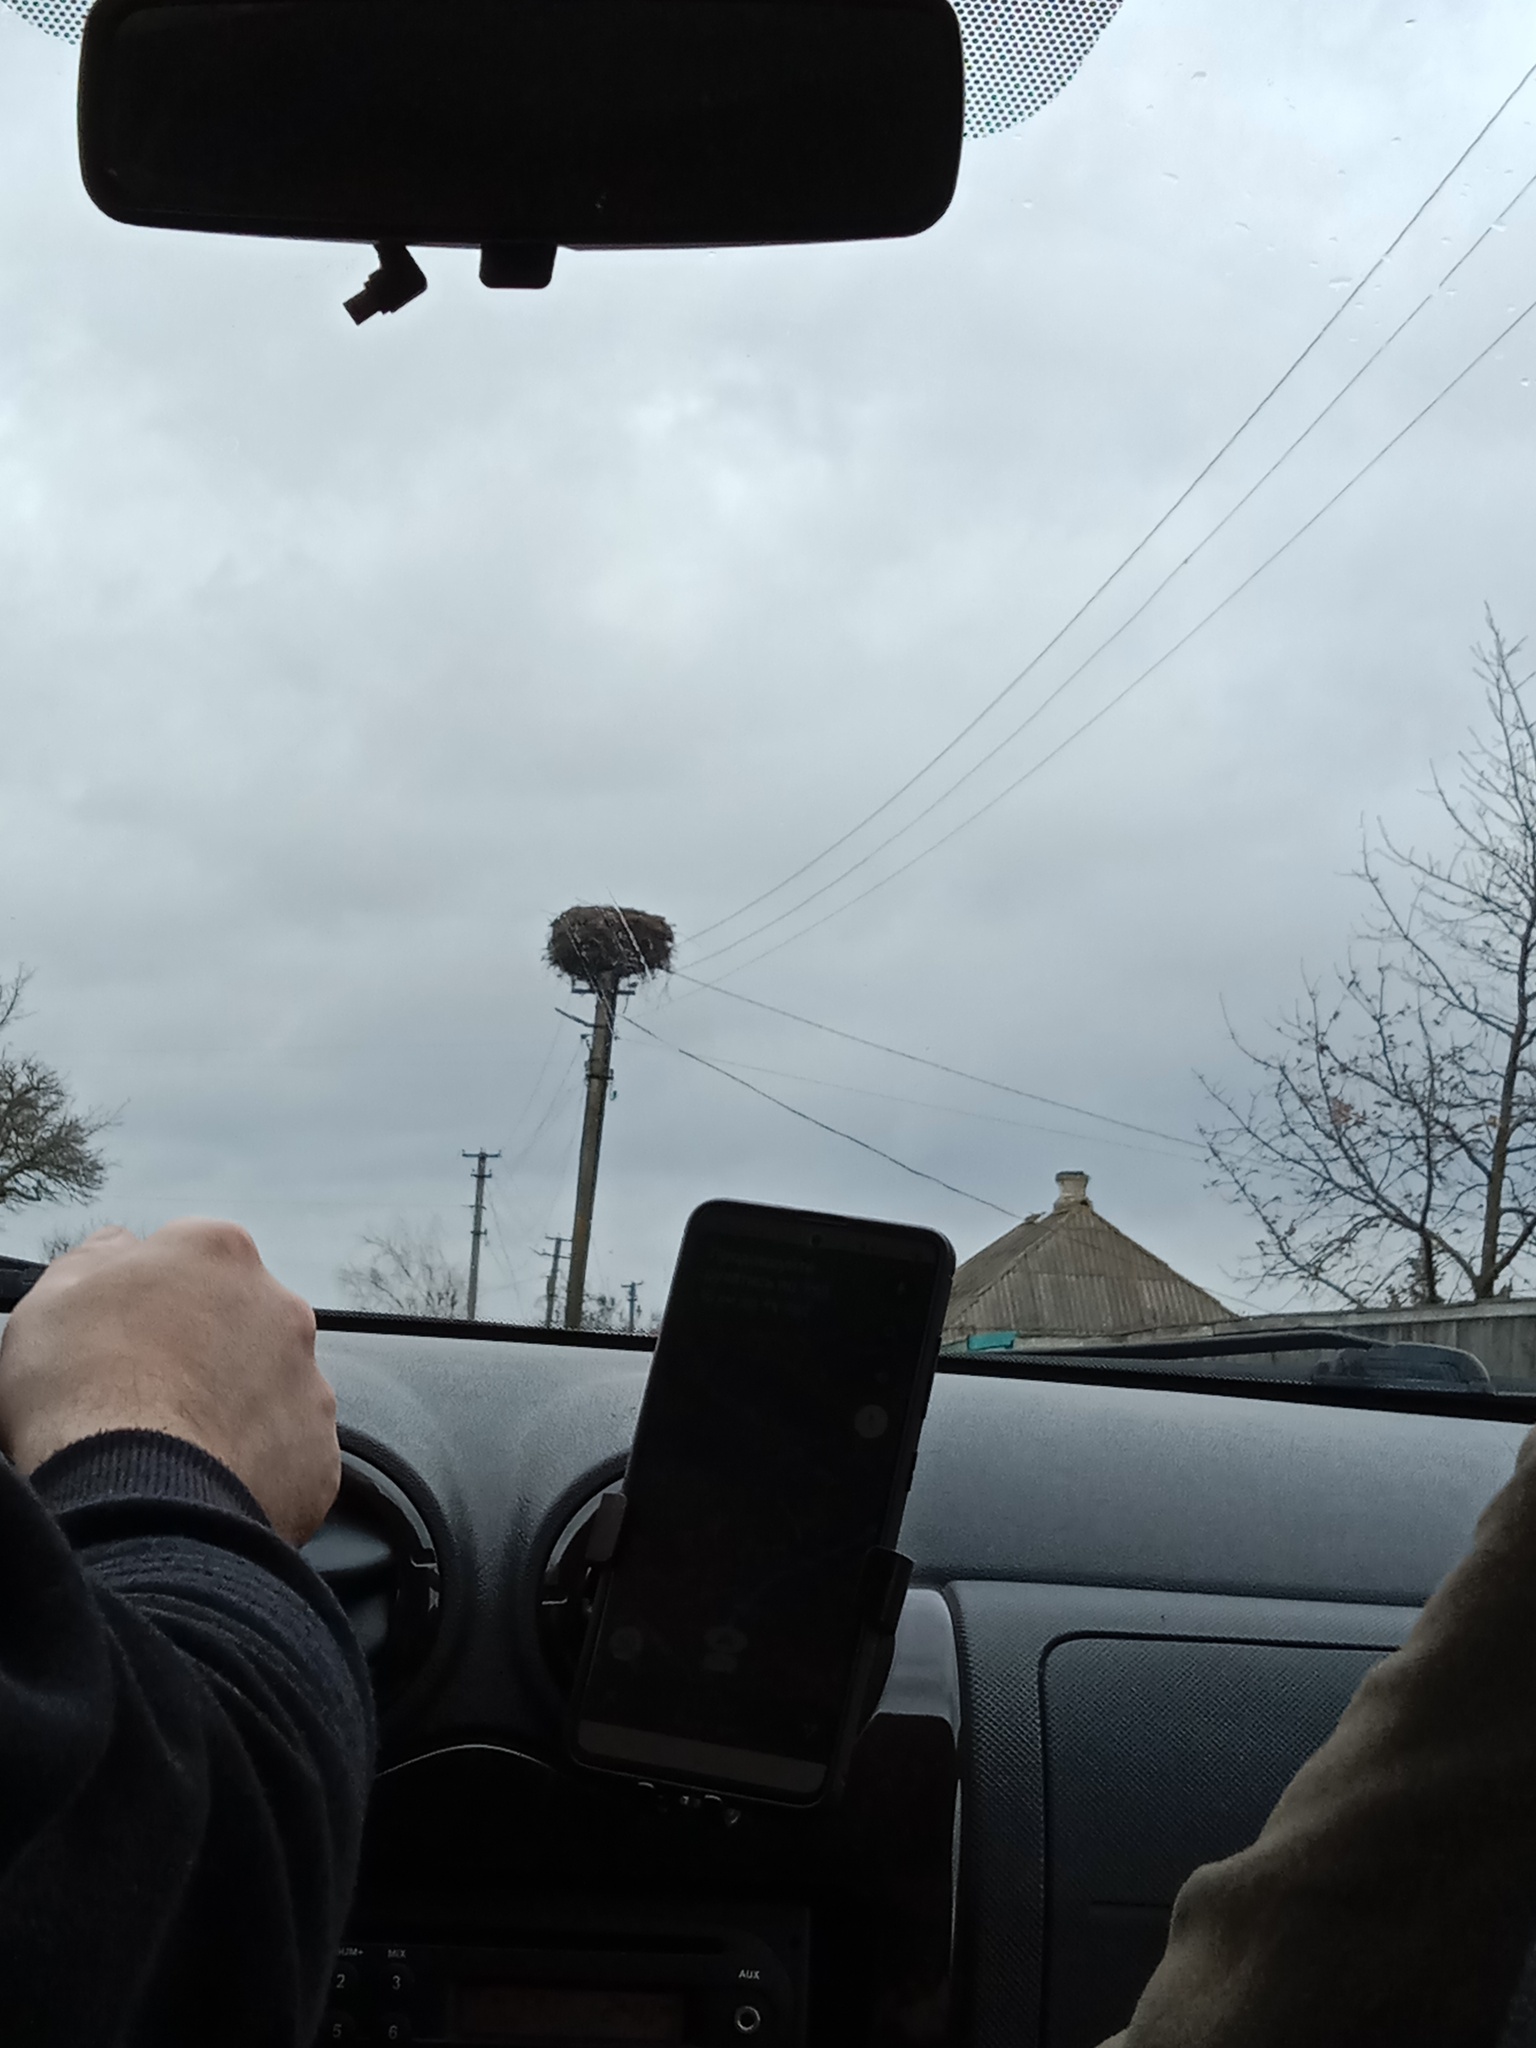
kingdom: Animalia
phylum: Chordata
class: Aves
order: Ciconiiformes
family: Ciconiidae
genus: Ciconia
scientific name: Ciconia ciconia
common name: White stork
